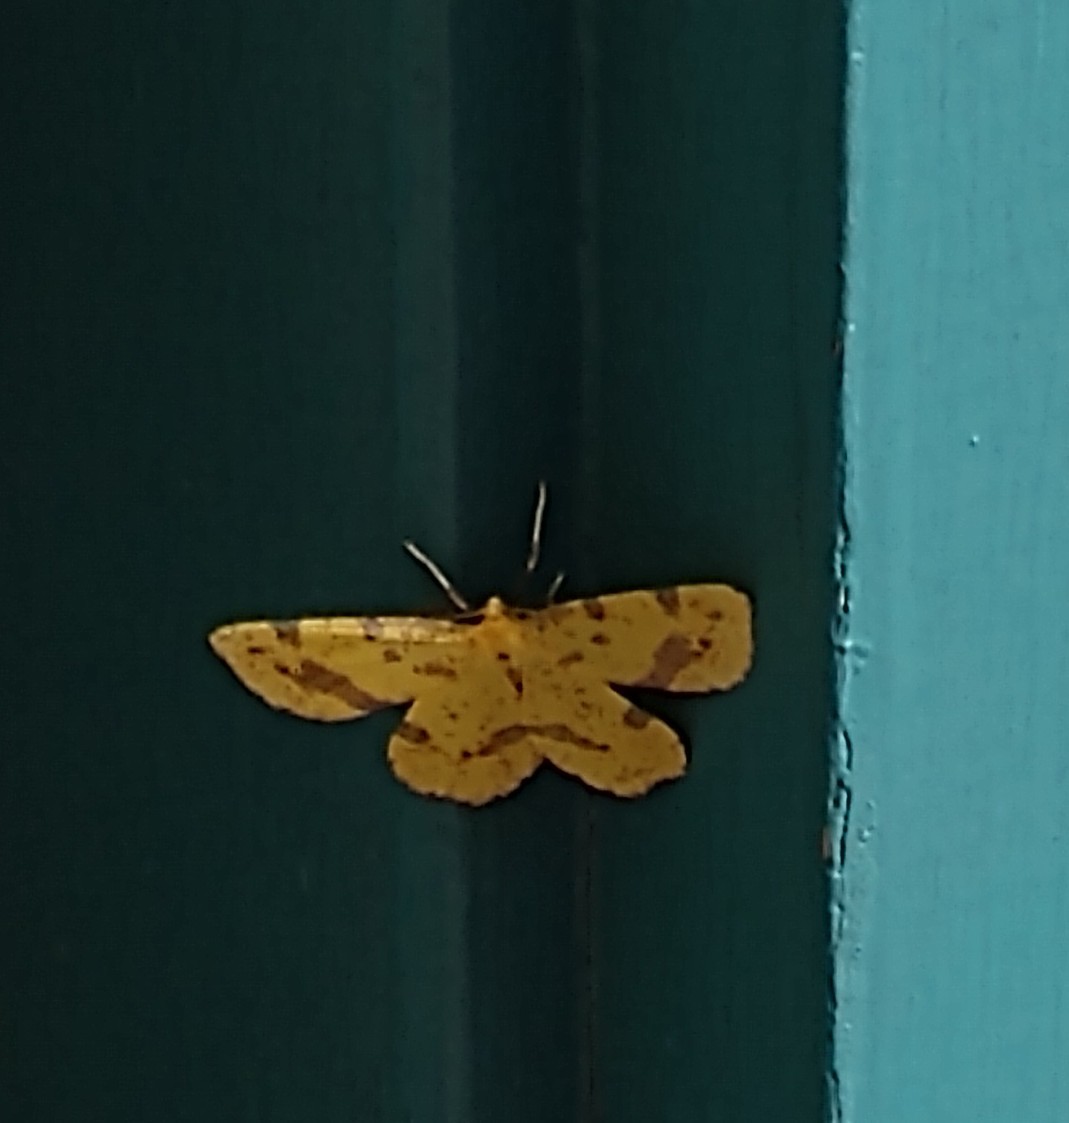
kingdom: Animalia
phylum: Arthropoda
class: Insecta
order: Lepidoptera
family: Geometridae
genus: Xanthotype
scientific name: Xanthotype
